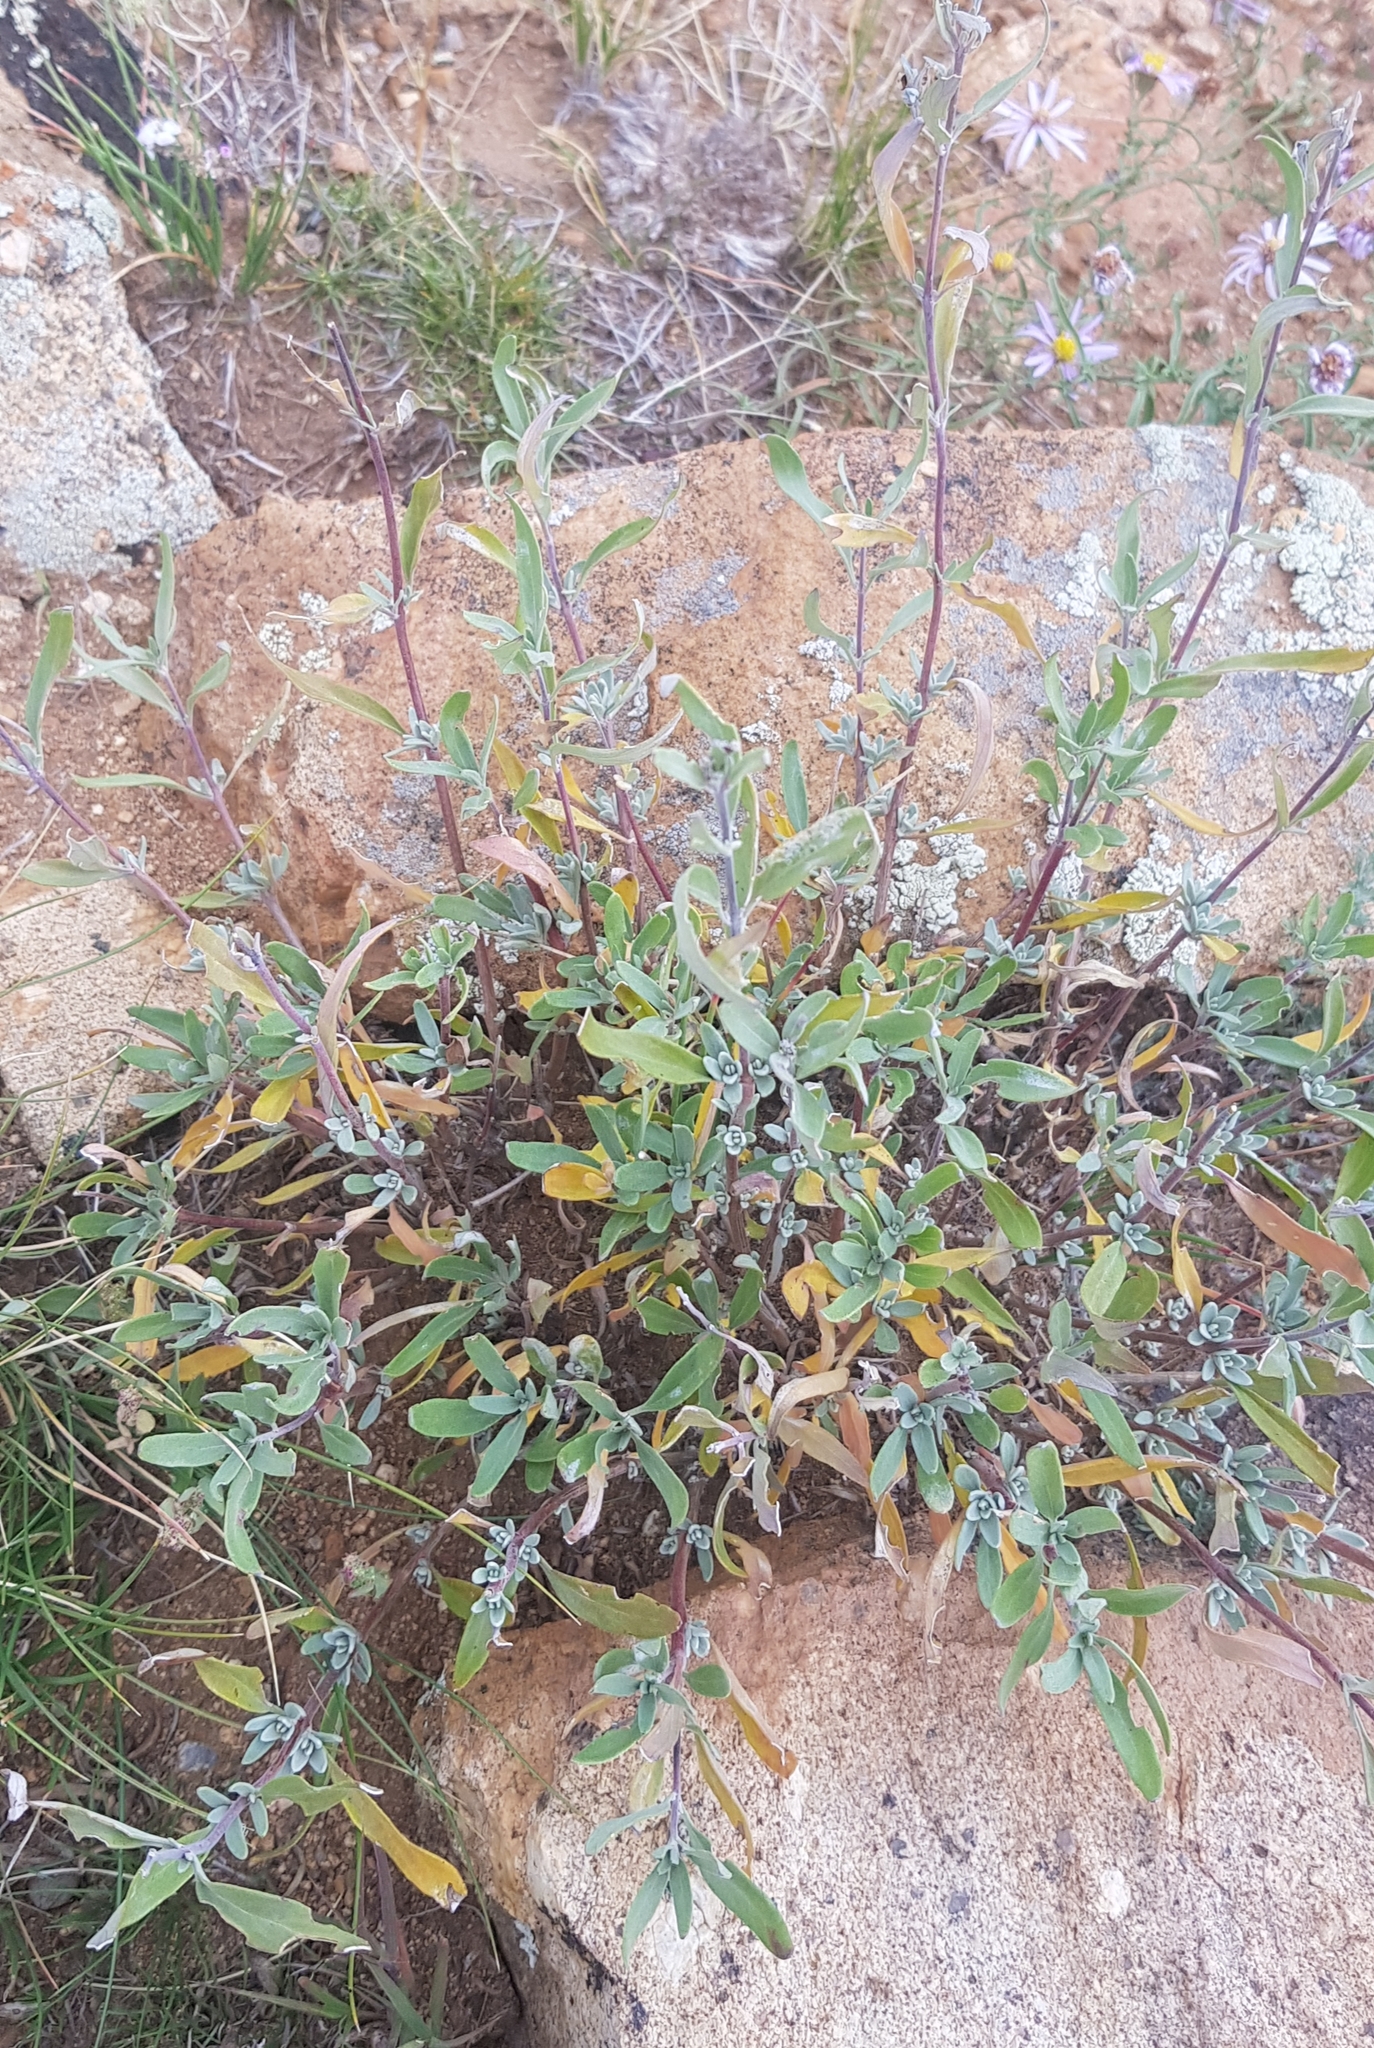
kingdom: Plantae
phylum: Tracheophyta
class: Magnoliopsida
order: Lamiales
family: Lamiaceae
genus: Caryopteris
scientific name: Caryopteris mongholica
